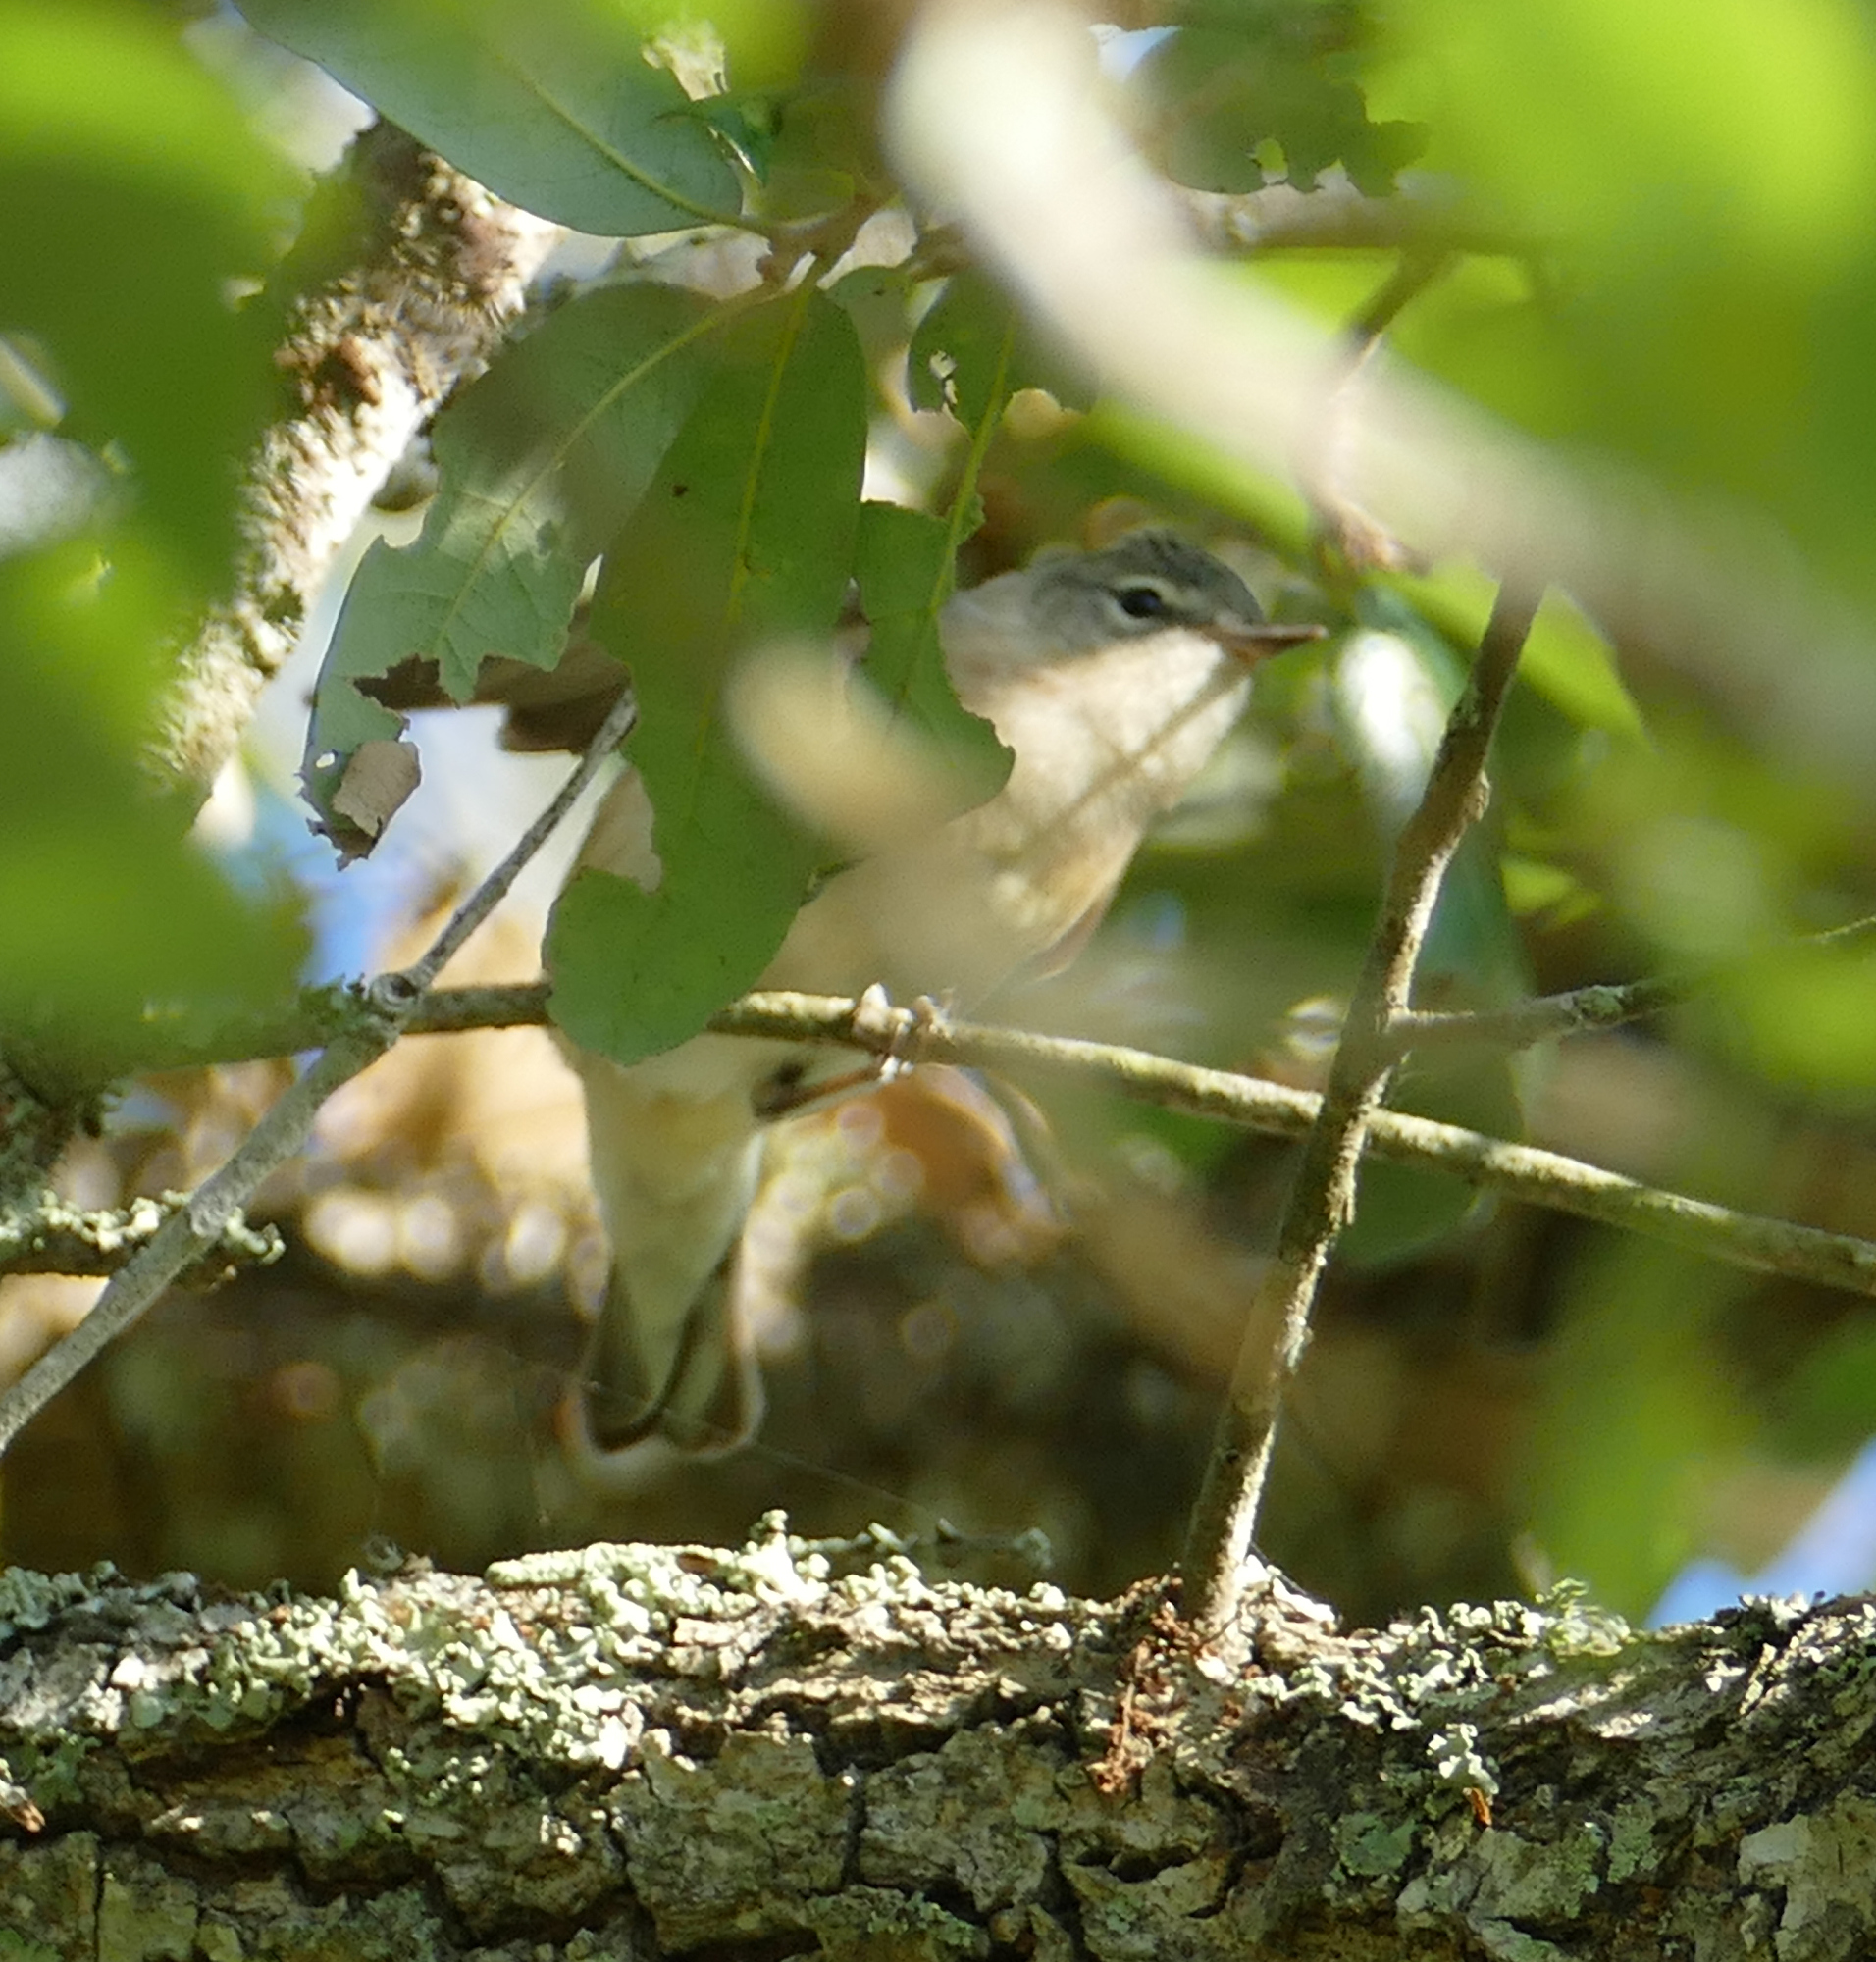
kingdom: Animalia
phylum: Chordata
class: Aves
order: Passeriformes
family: Parulidae
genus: Leiothlypis
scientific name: Leiothlypis peregrina
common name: Tennessee warbler
